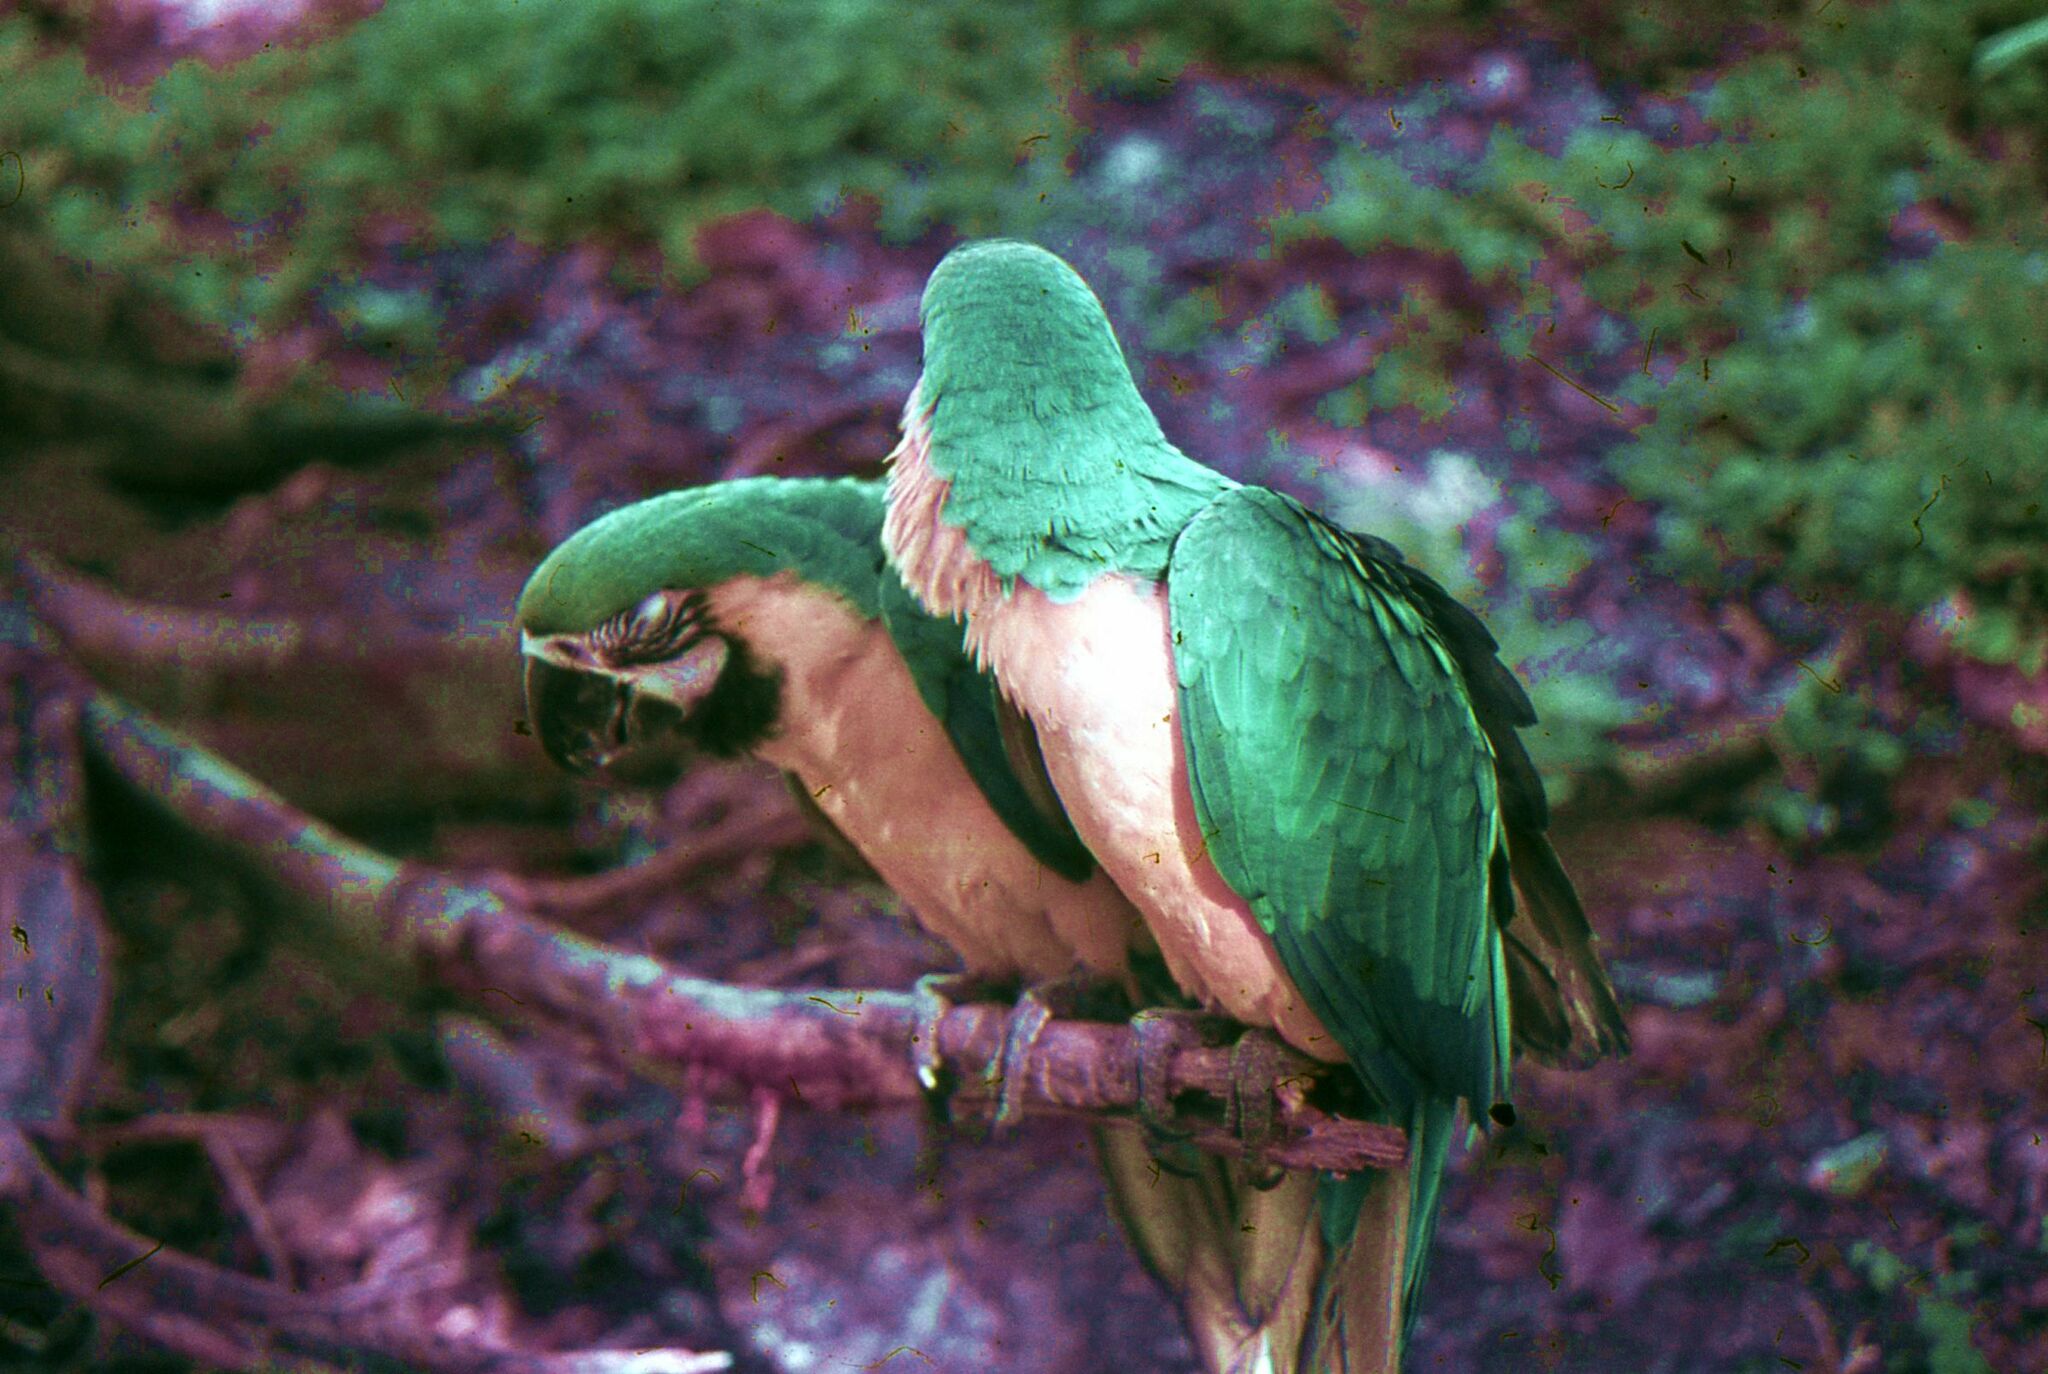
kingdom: Animalia
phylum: Chordata
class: Aves
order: Psittaciformes
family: Psittacidae
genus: Ara
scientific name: Ara ararauna
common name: Blue-and-yellow macaw
